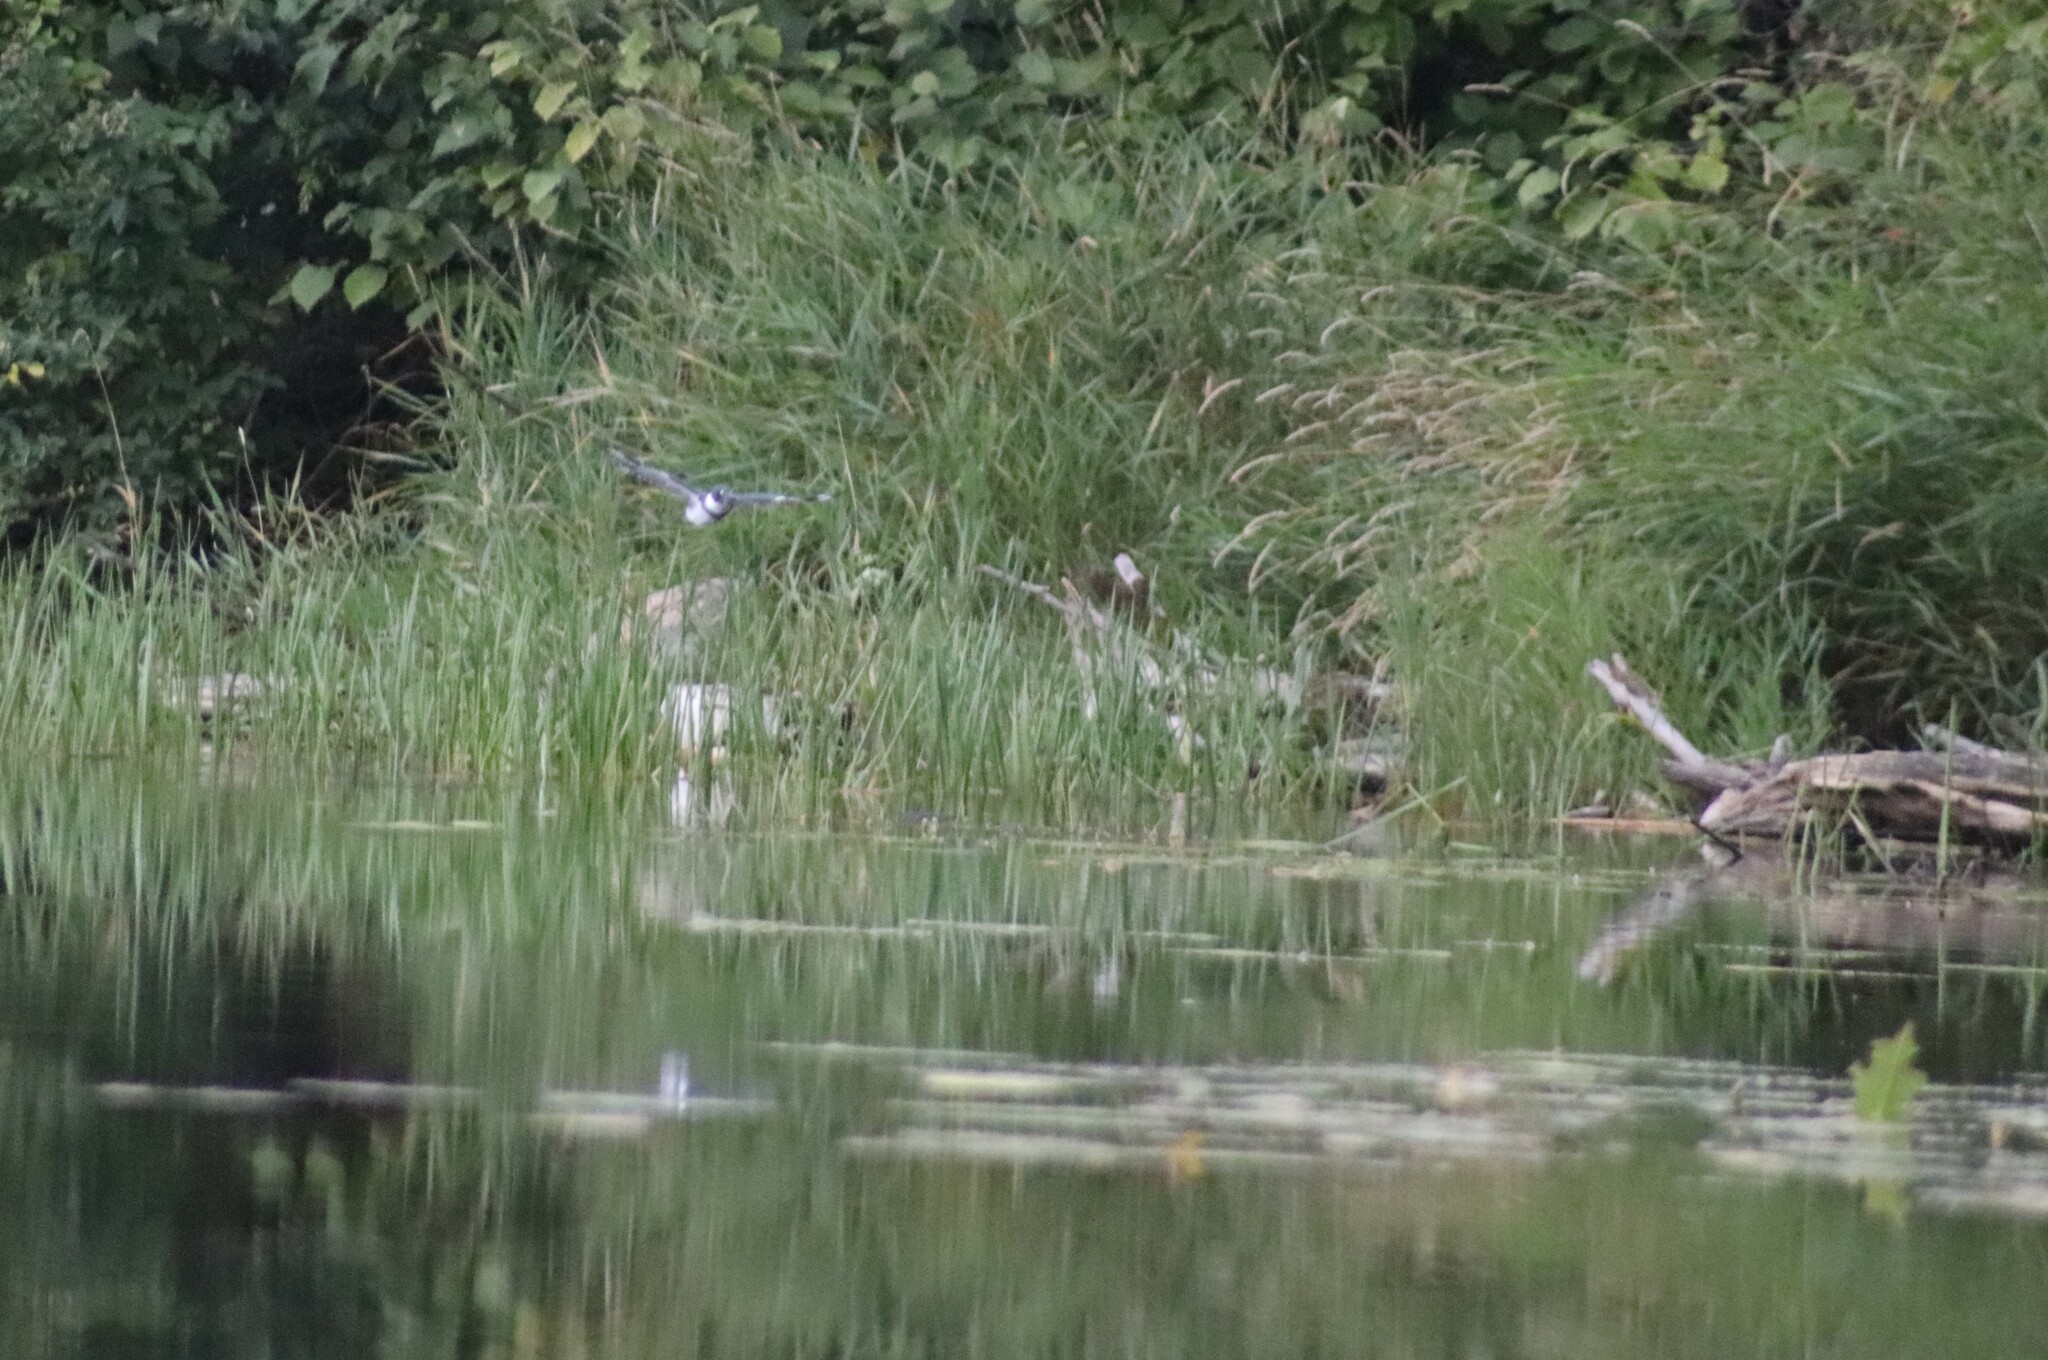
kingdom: Animalia
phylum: Chordata
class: Aves
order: Coraciiformes
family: Alcedinidae
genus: Megaceryle
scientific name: Megaceryle alcyon
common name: Belted kingfisher
